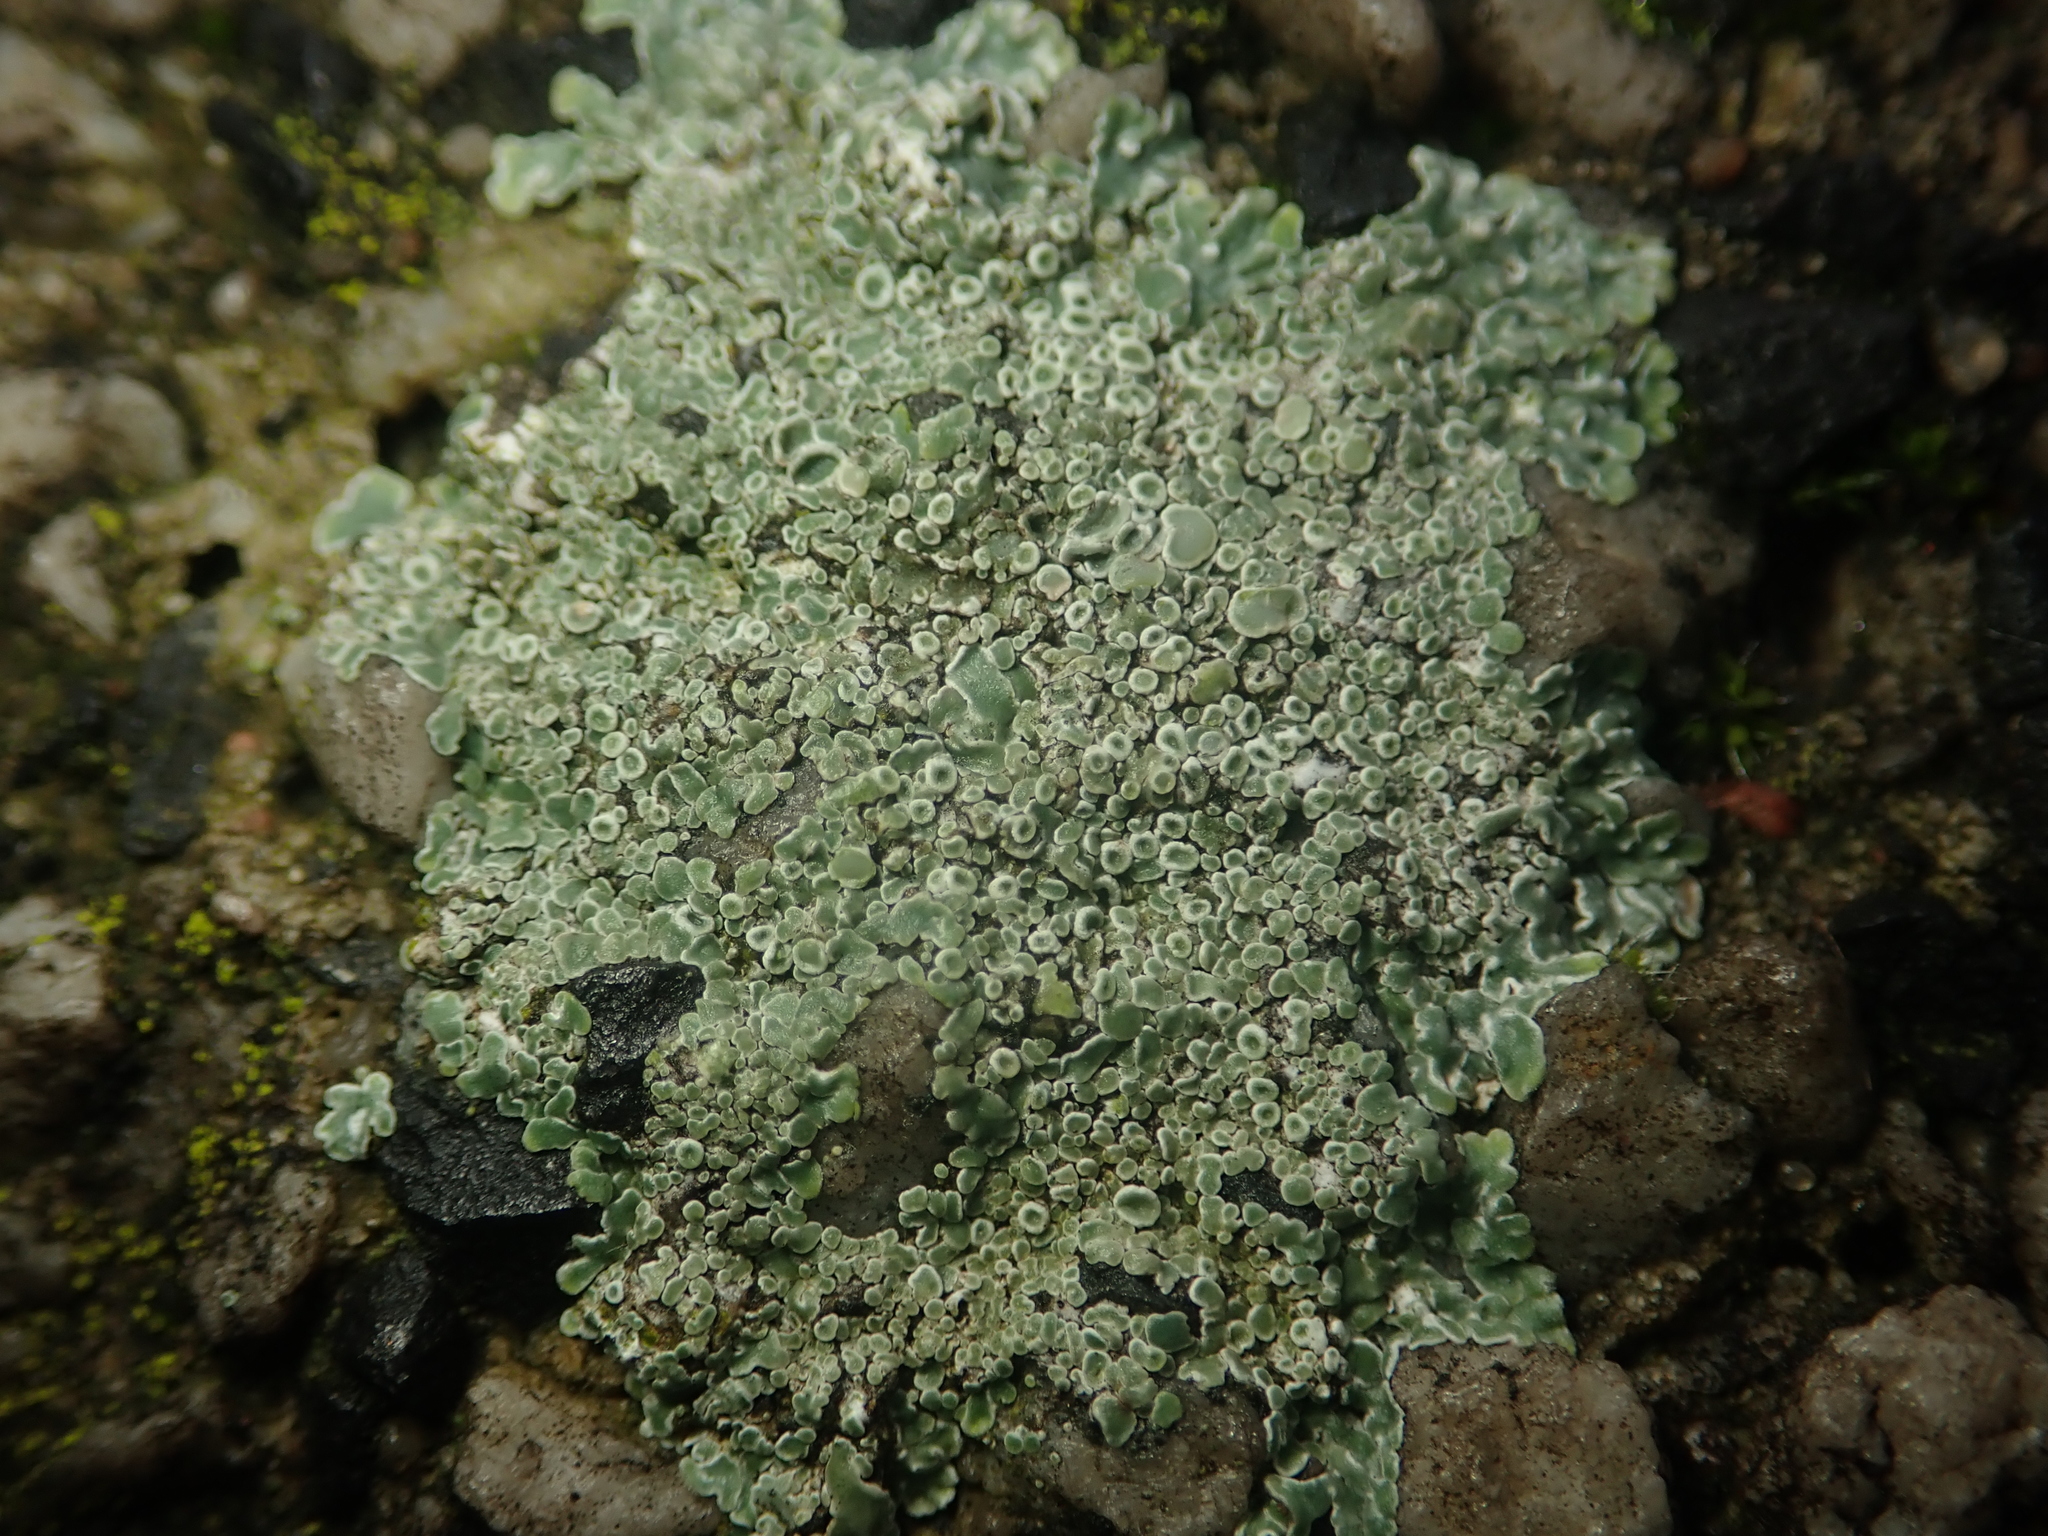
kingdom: Fungi
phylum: Ascomycota
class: Lecanoromycetes
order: Lecanorales
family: Lecanoraceae
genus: Protoparmeliopsis
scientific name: Protoparmeliopsis muralis
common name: Stonewall rim lichen
